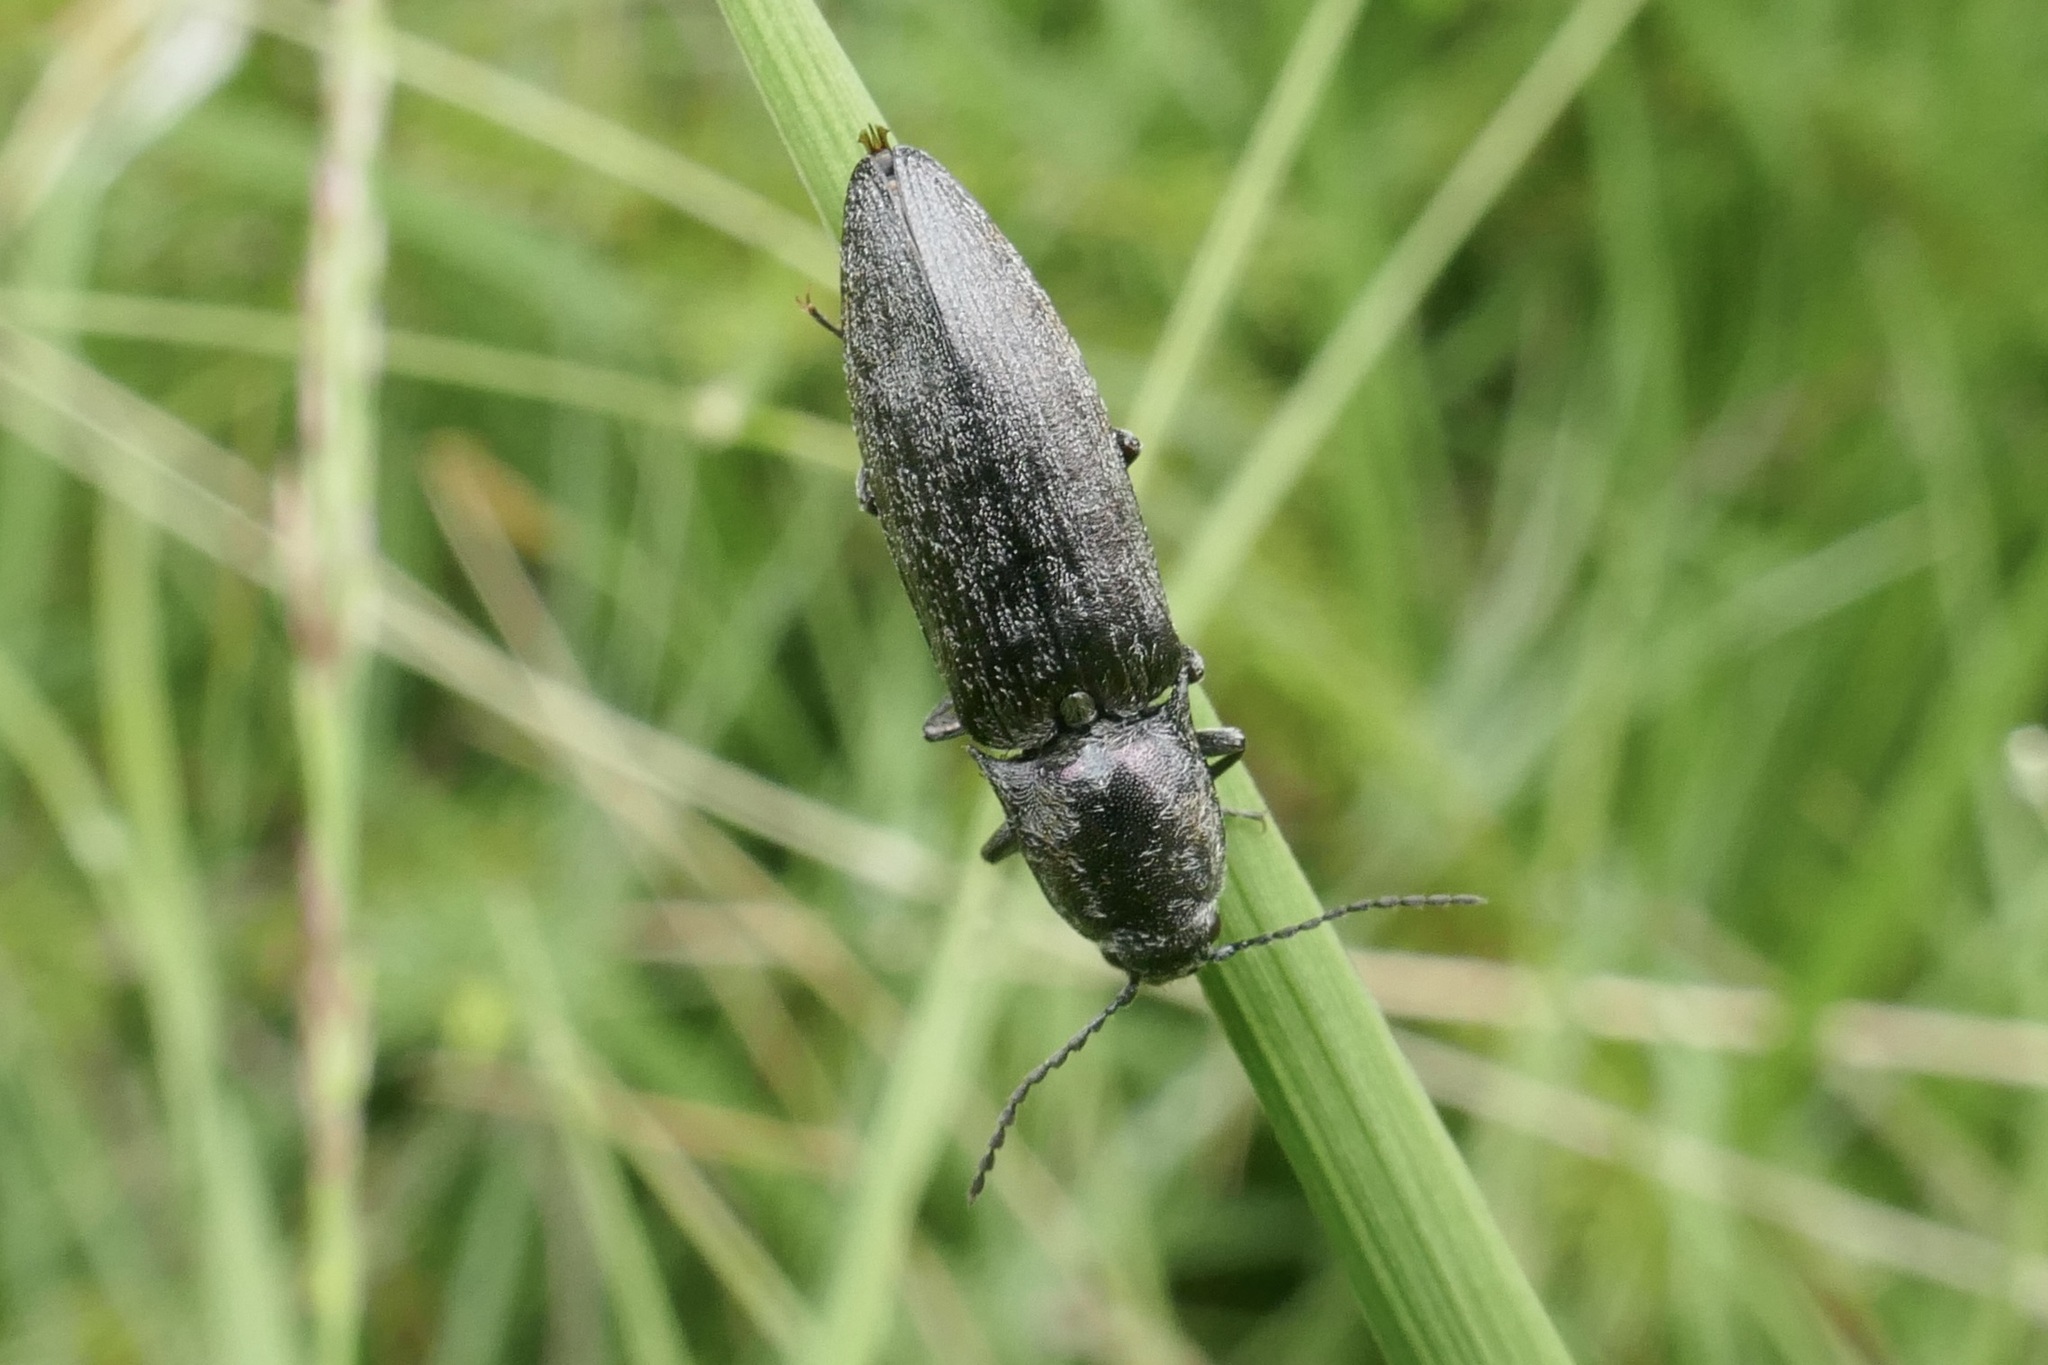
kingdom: Animalia
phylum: Arthropoda
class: Insecta
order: Coleoptera
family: Elateridae
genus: Actenicerus
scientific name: Actenicerus sjaelandicus
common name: Marsh click beetle
